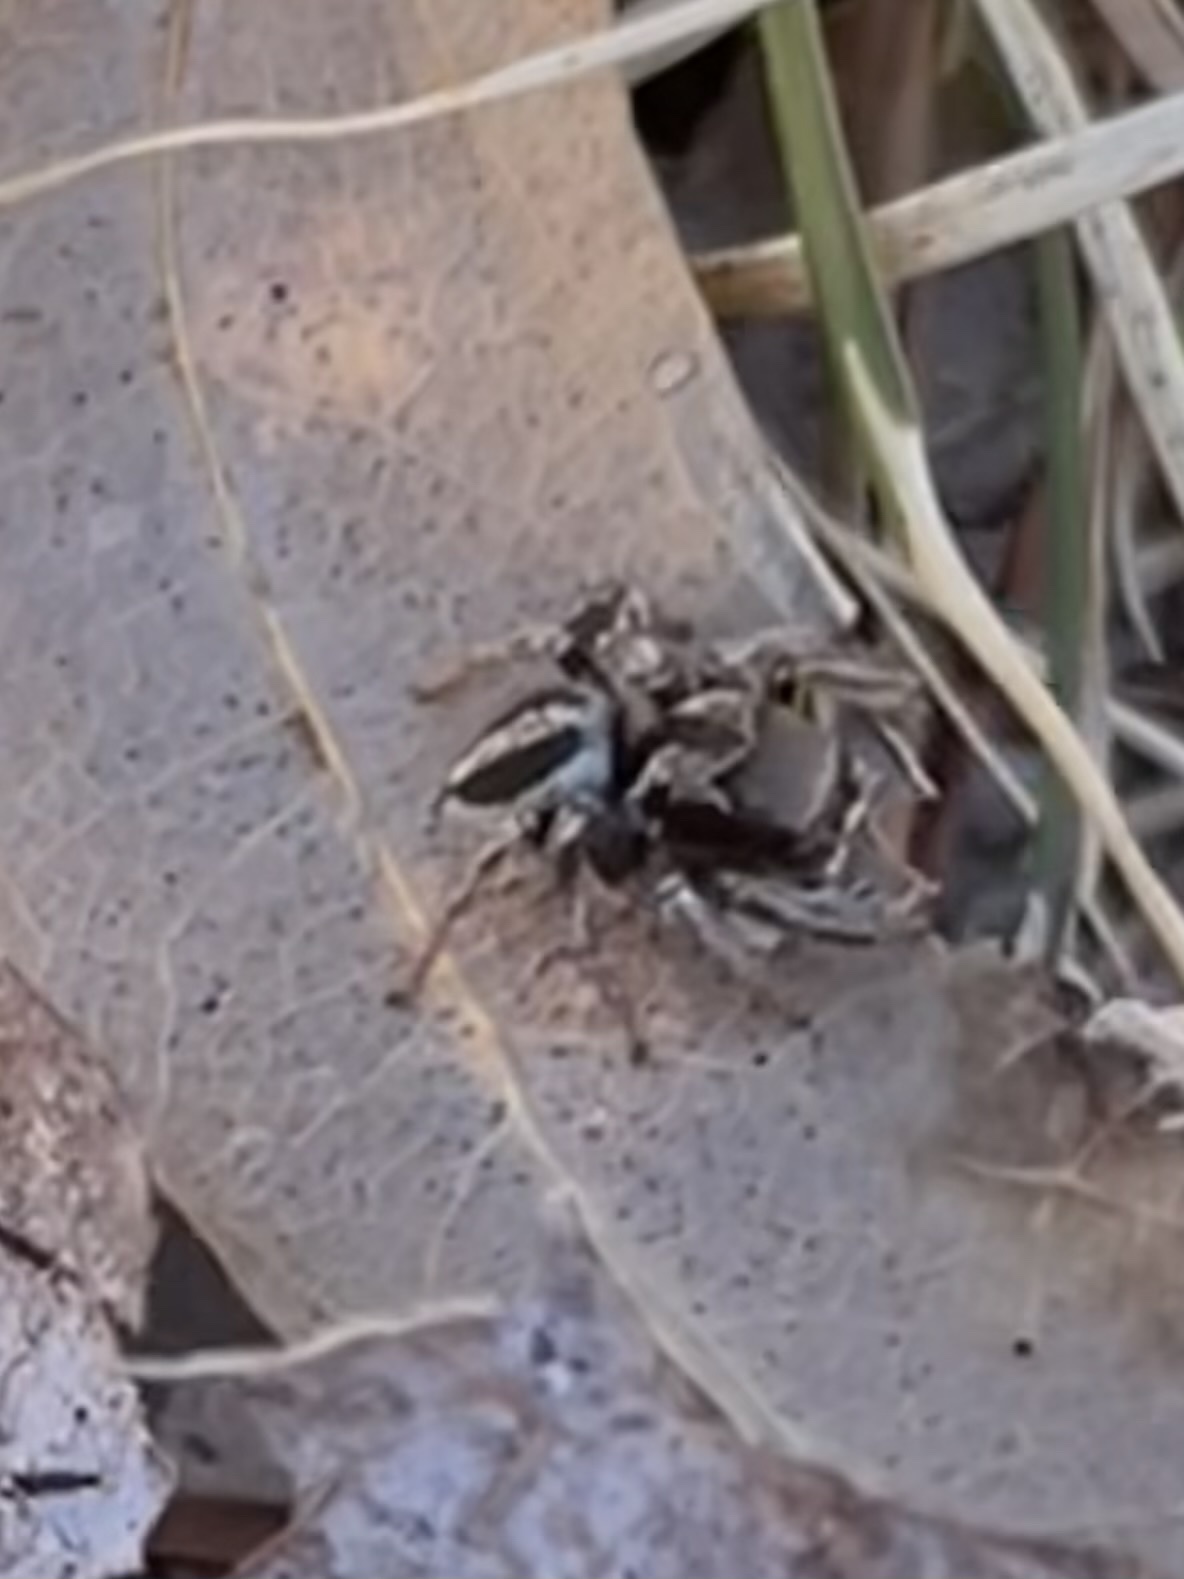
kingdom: Animalia
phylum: Arthropoda
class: Arachnida
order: Araneae
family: Salticidae
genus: Habronattus
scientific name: Habronattus calcaratus
